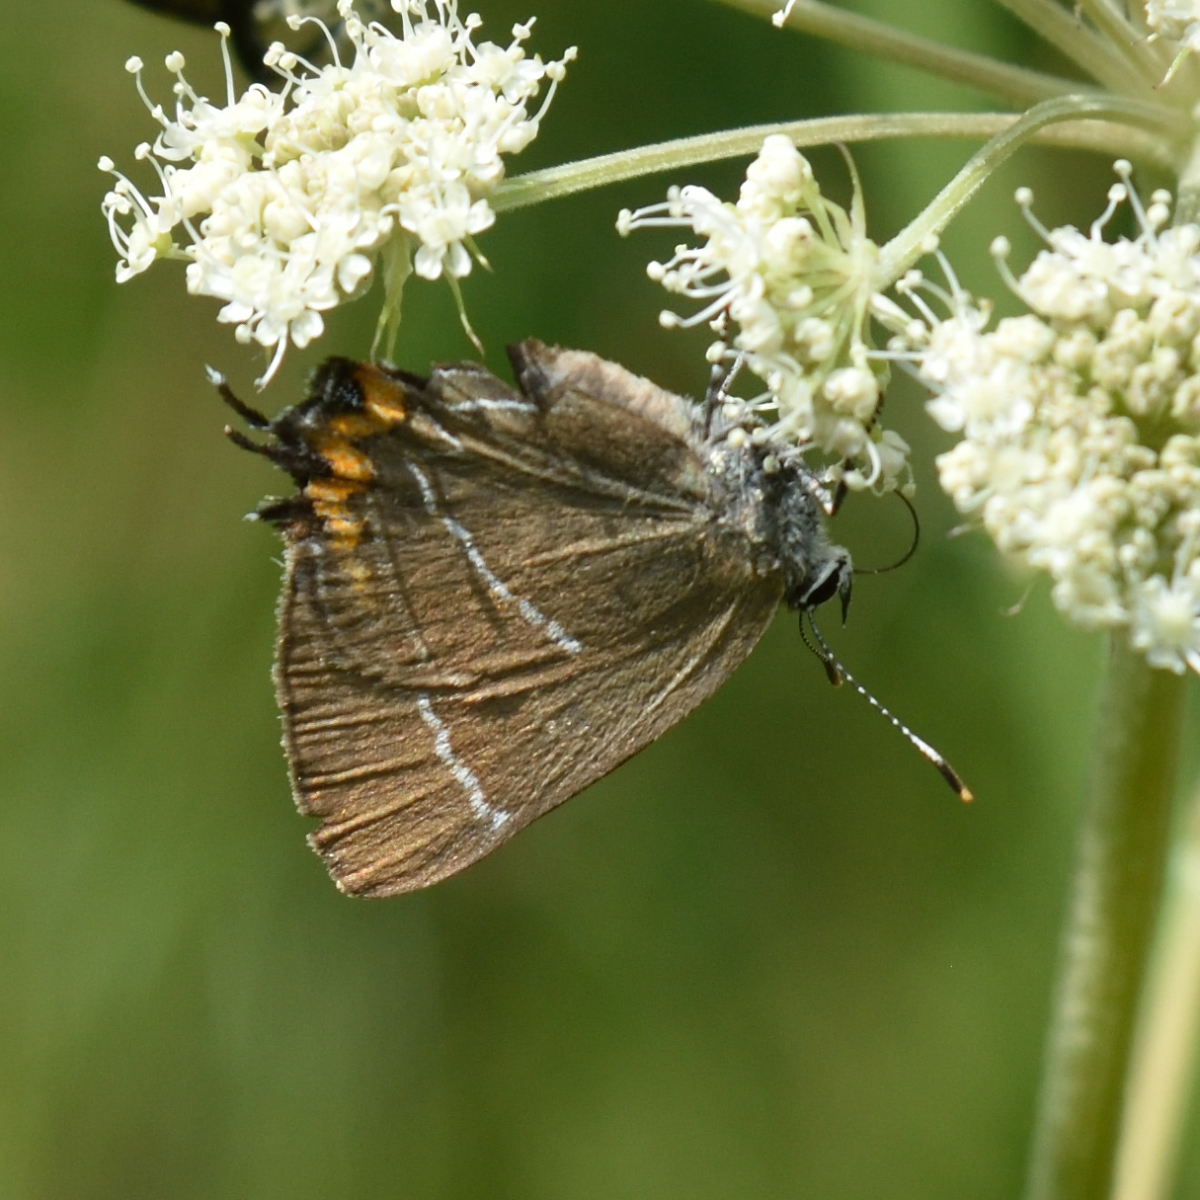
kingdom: Animalia
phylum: Arthropoda
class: Insecta
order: Lepidoptera
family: Lycaenidae
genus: Satyrium
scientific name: Satyrium w-album
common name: White-letter hairstreak
